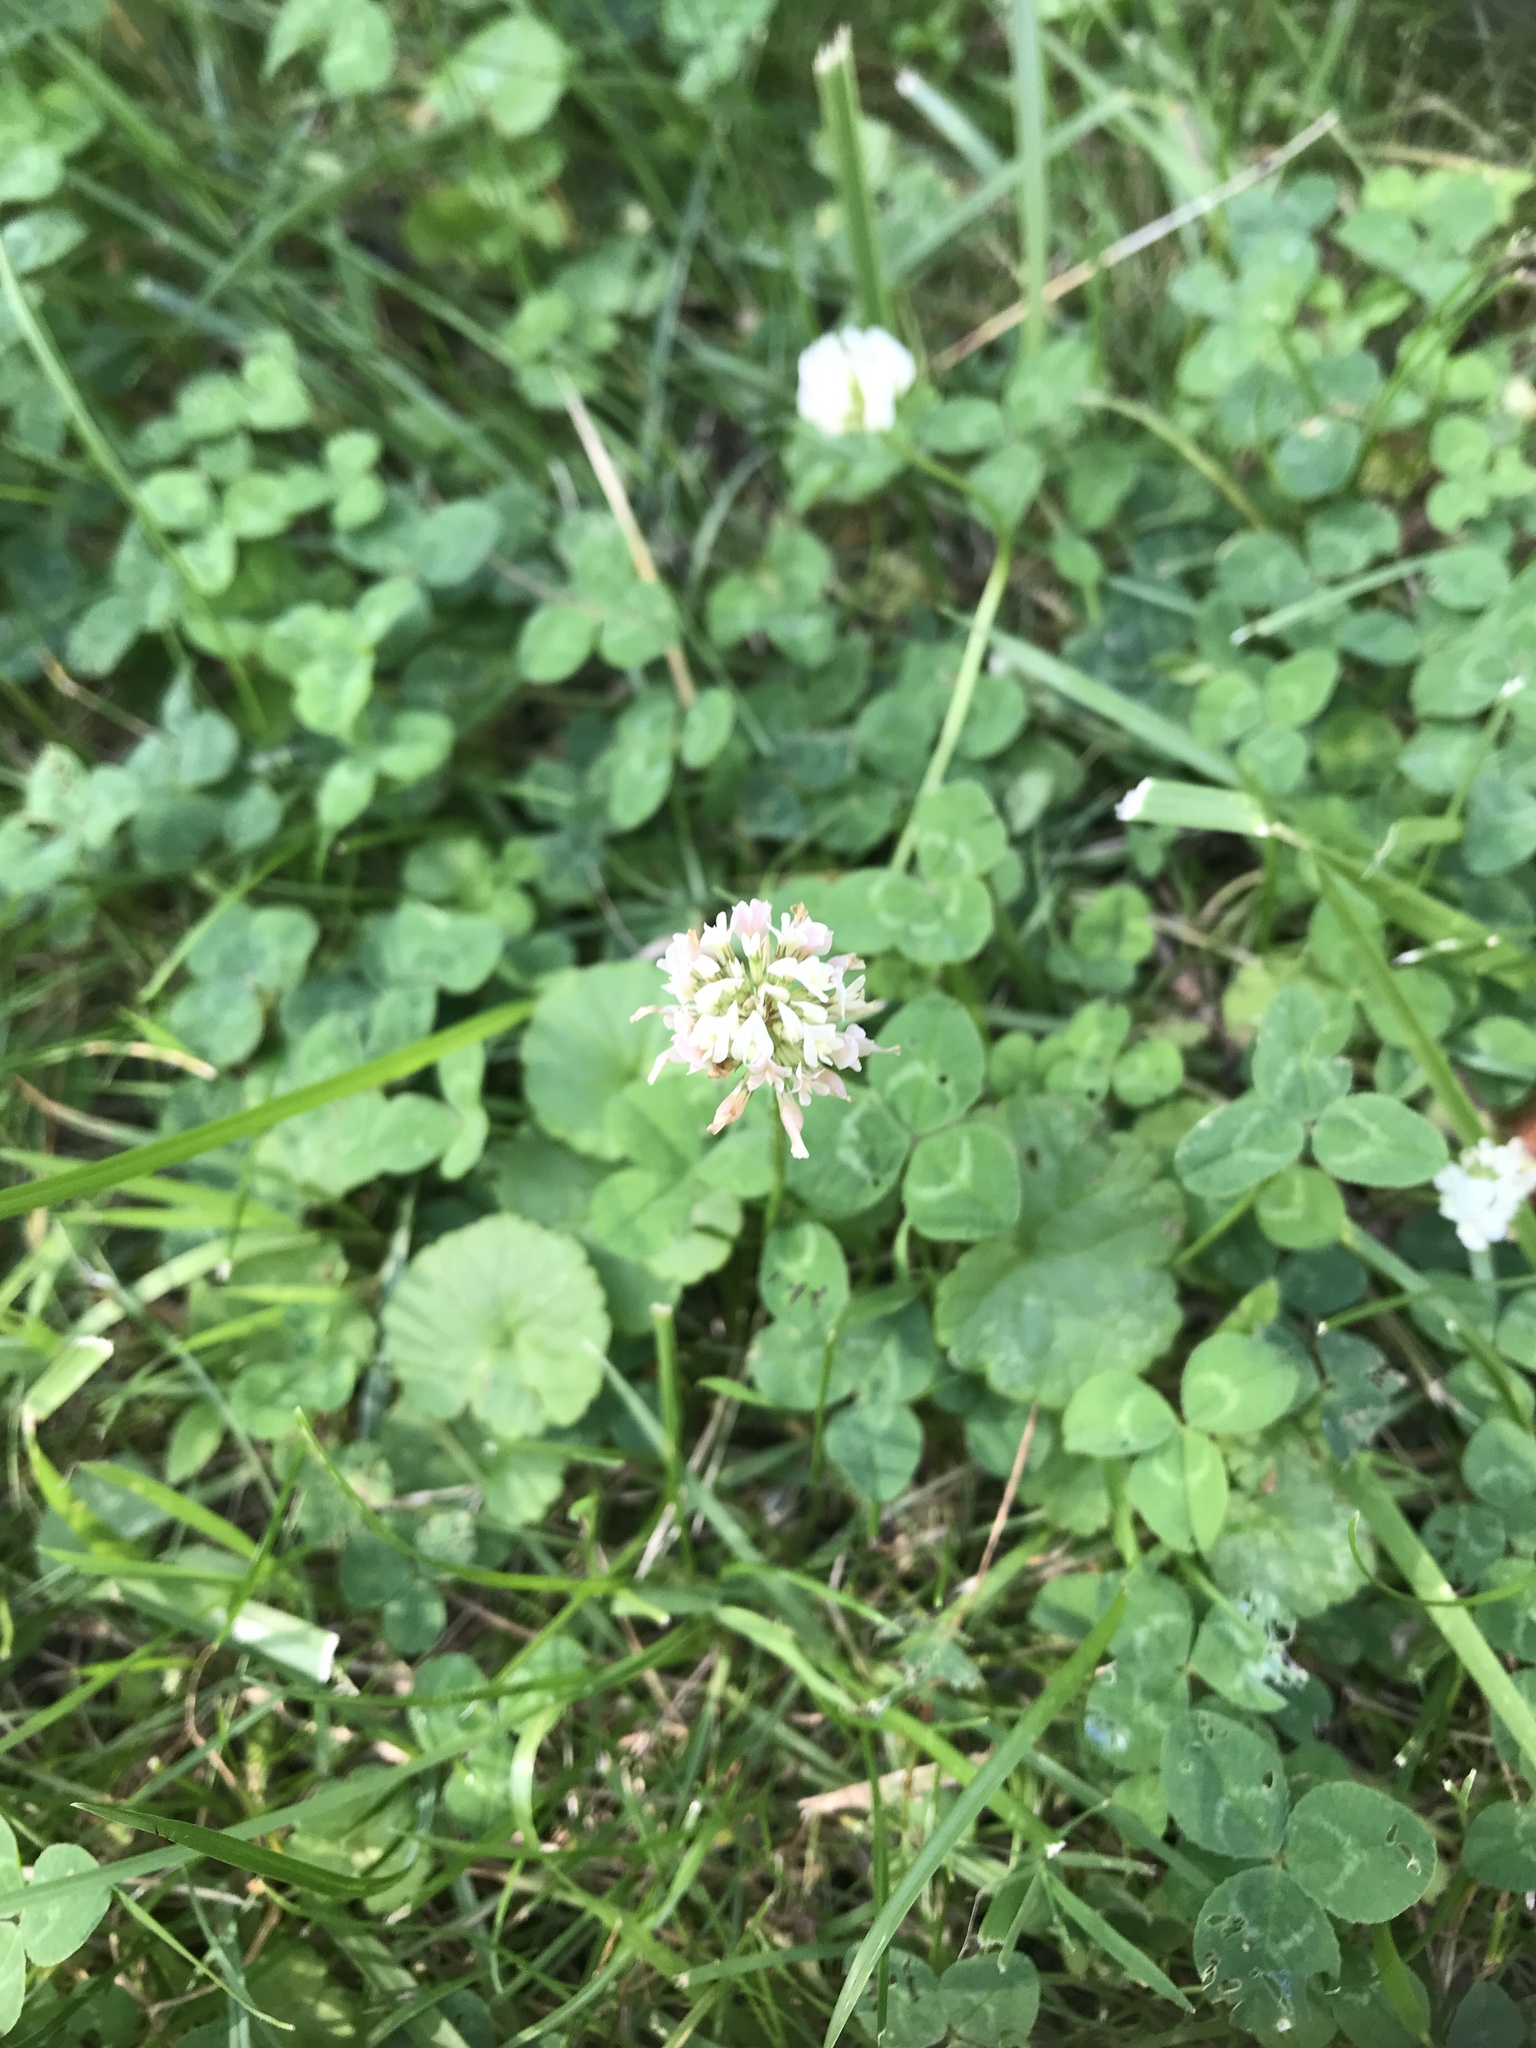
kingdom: Plantae
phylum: Tracheophyta
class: Magnoliopsida
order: Fabales
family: Fabaceae
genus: Trifolium
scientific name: Trifolium repens
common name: White clover
